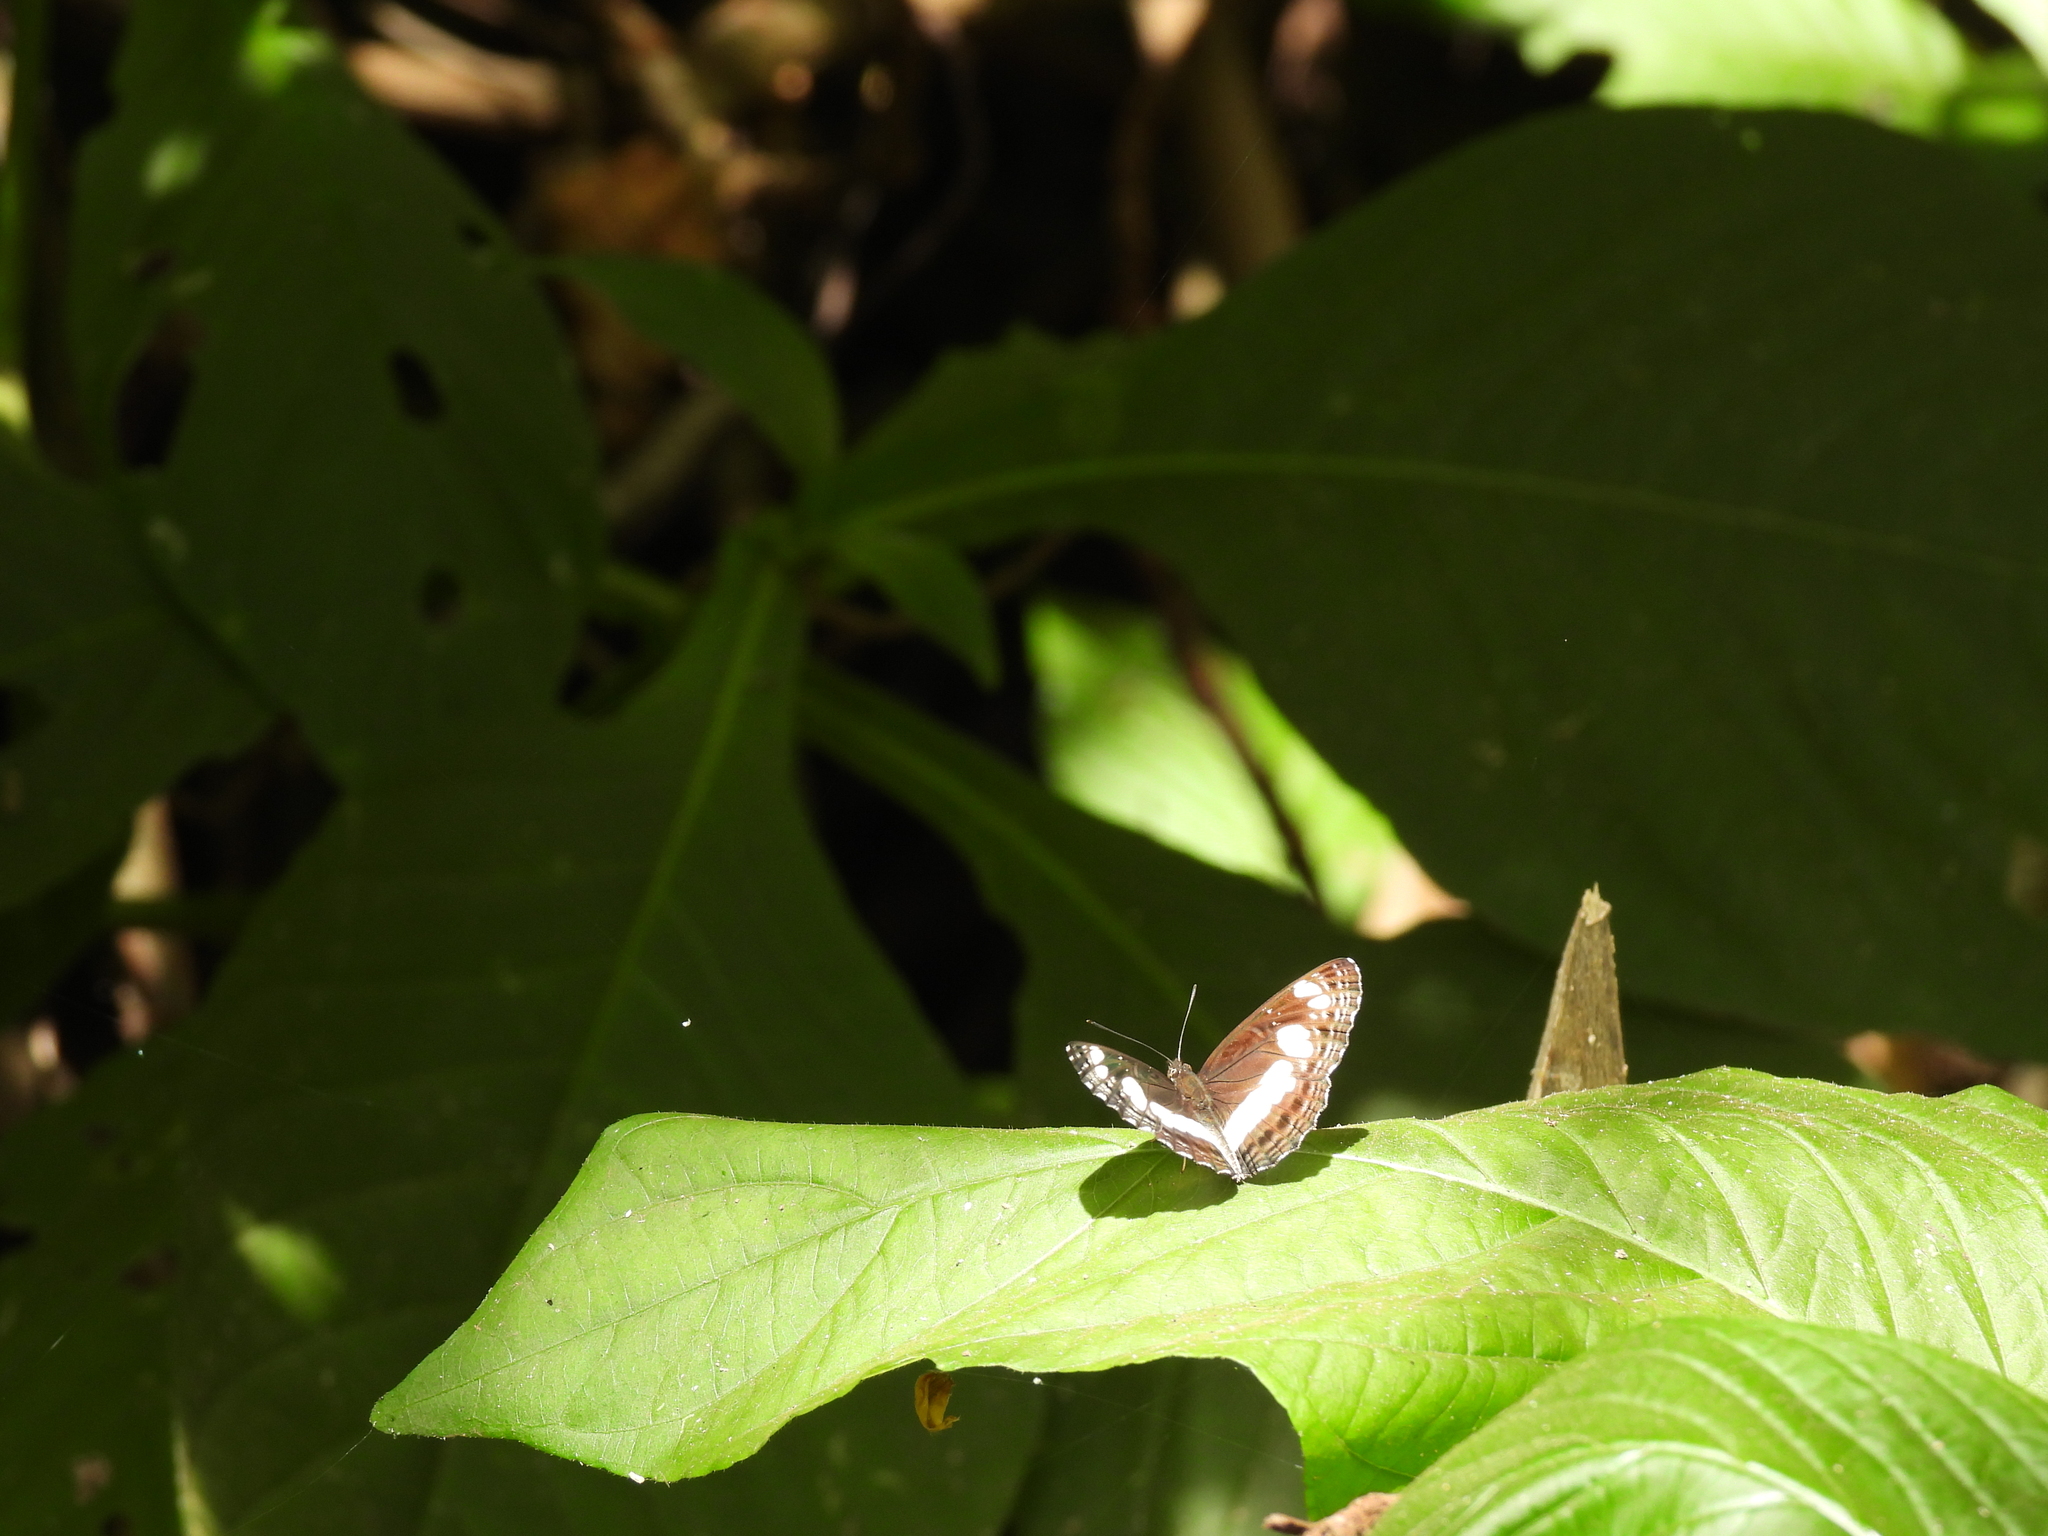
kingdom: Animalia
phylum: Arthropoda
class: Insecta
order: Lepidoptera
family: Nymphalidae
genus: Neptis
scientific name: Neptis saclava
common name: Small spotted sailor
